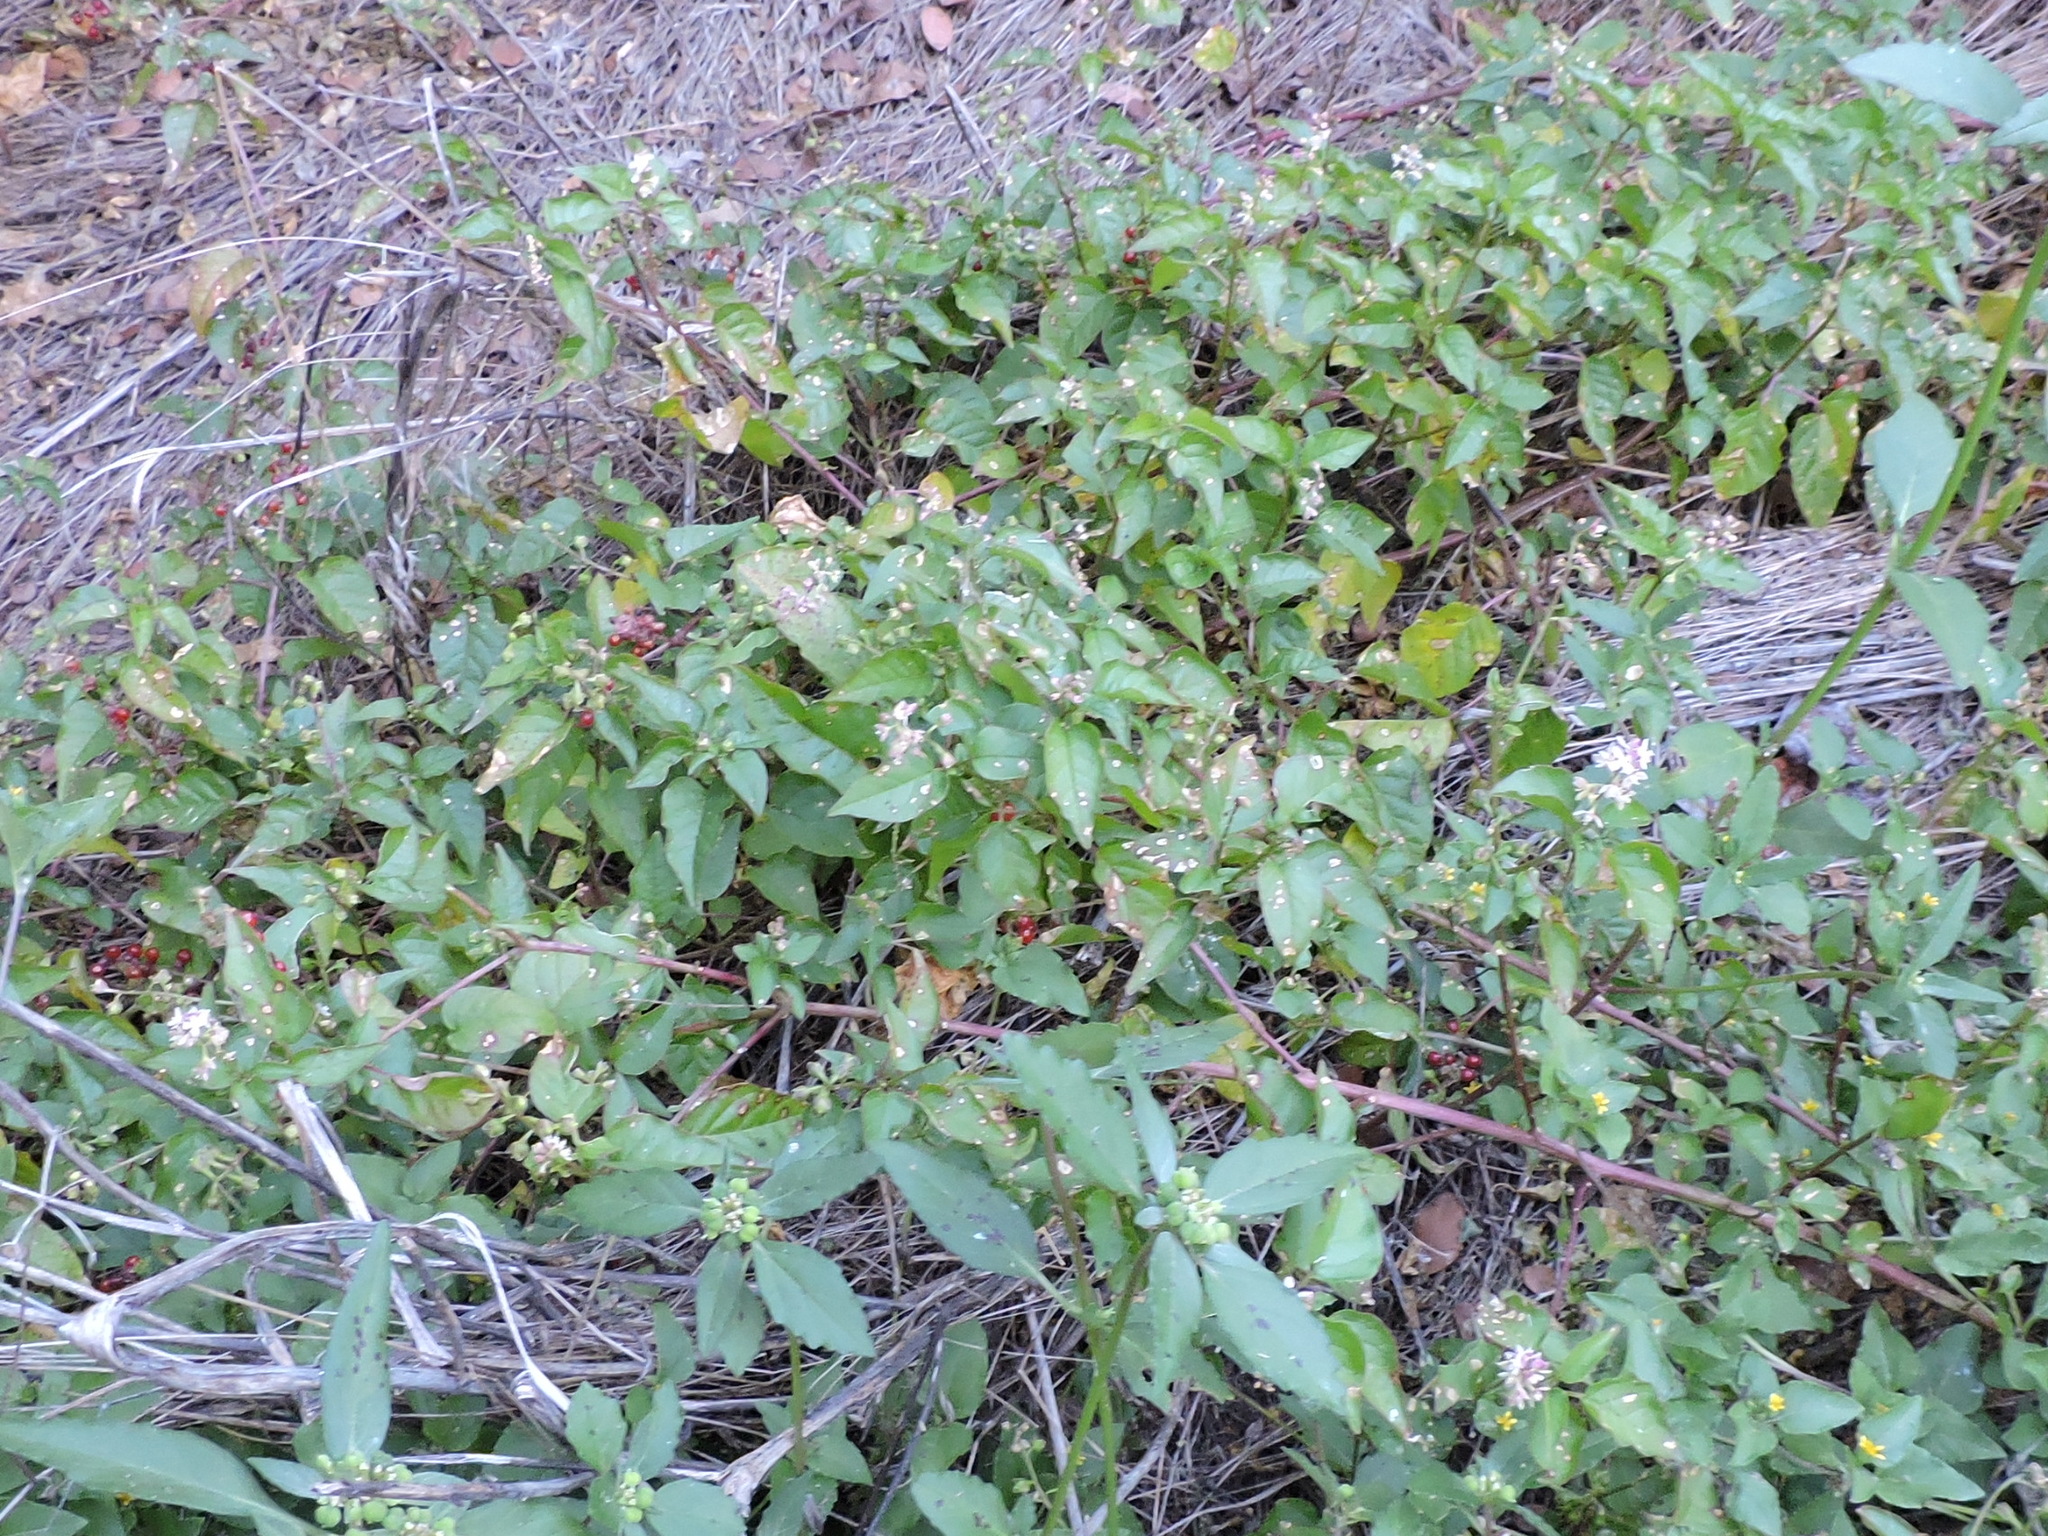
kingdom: Plantae
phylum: Tracheophyta
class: Magnoliopsida
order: Caryophyllales
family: Phytolaccaceae
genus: Rivina
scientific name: Rivina humilis
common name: Rougeplant
